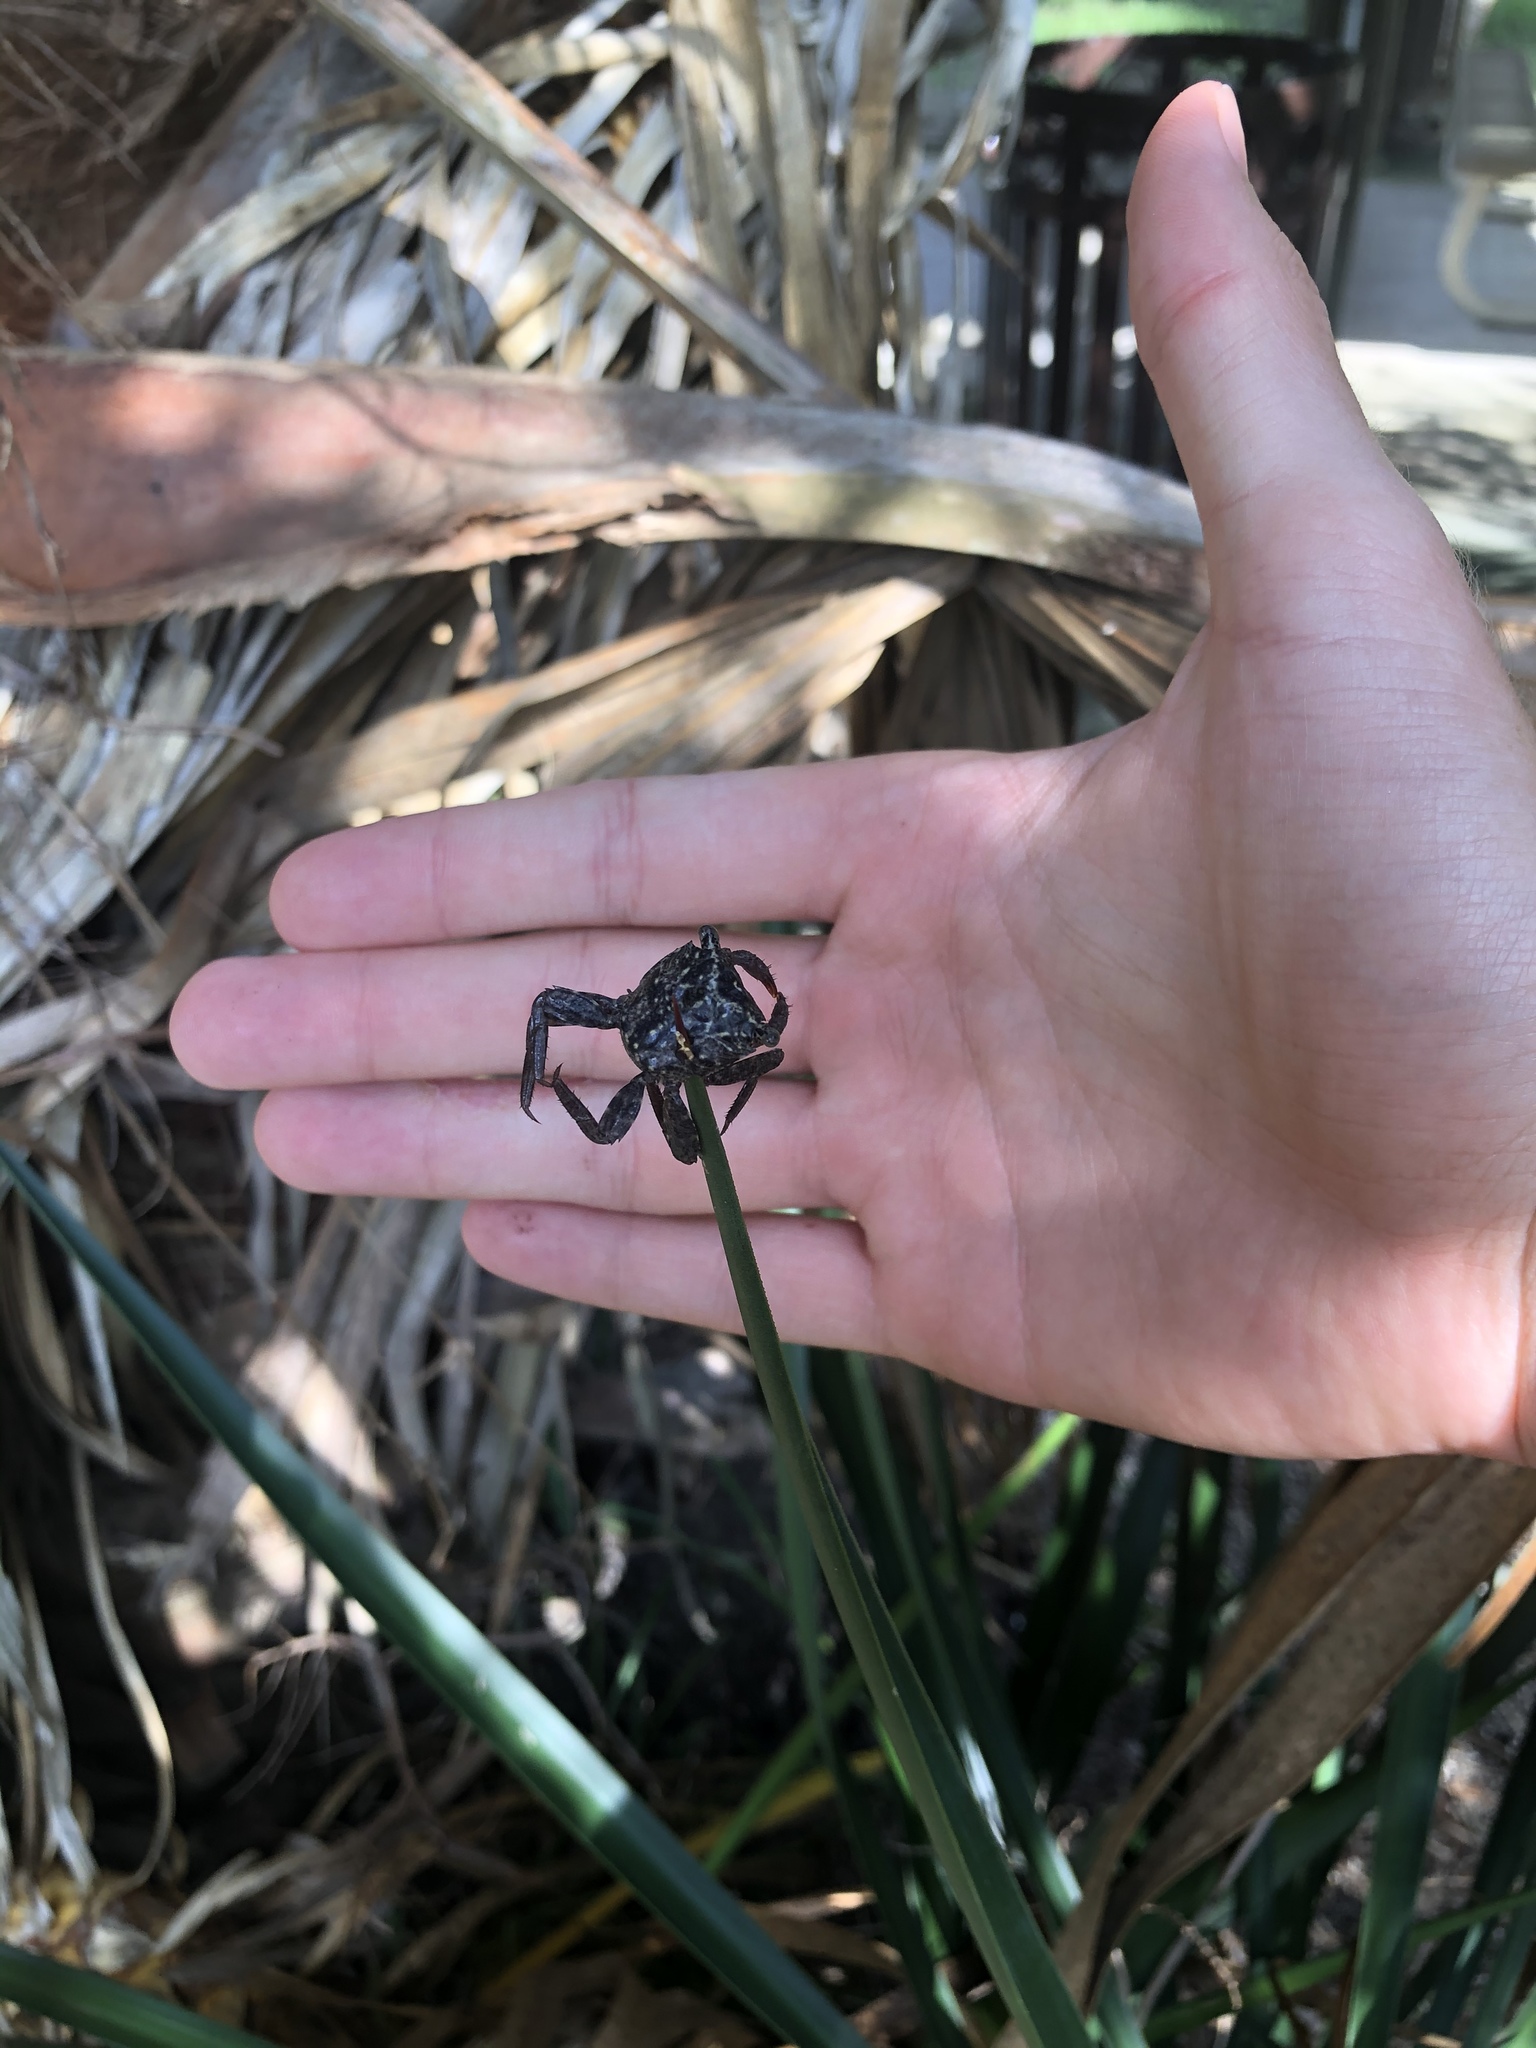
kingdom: Animalia
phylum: Arthropoda
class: Malacostraca
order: Decapoda
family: Sesarmidae
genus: Aratus
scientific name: Aratus pisonii
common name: Mangrove crab
